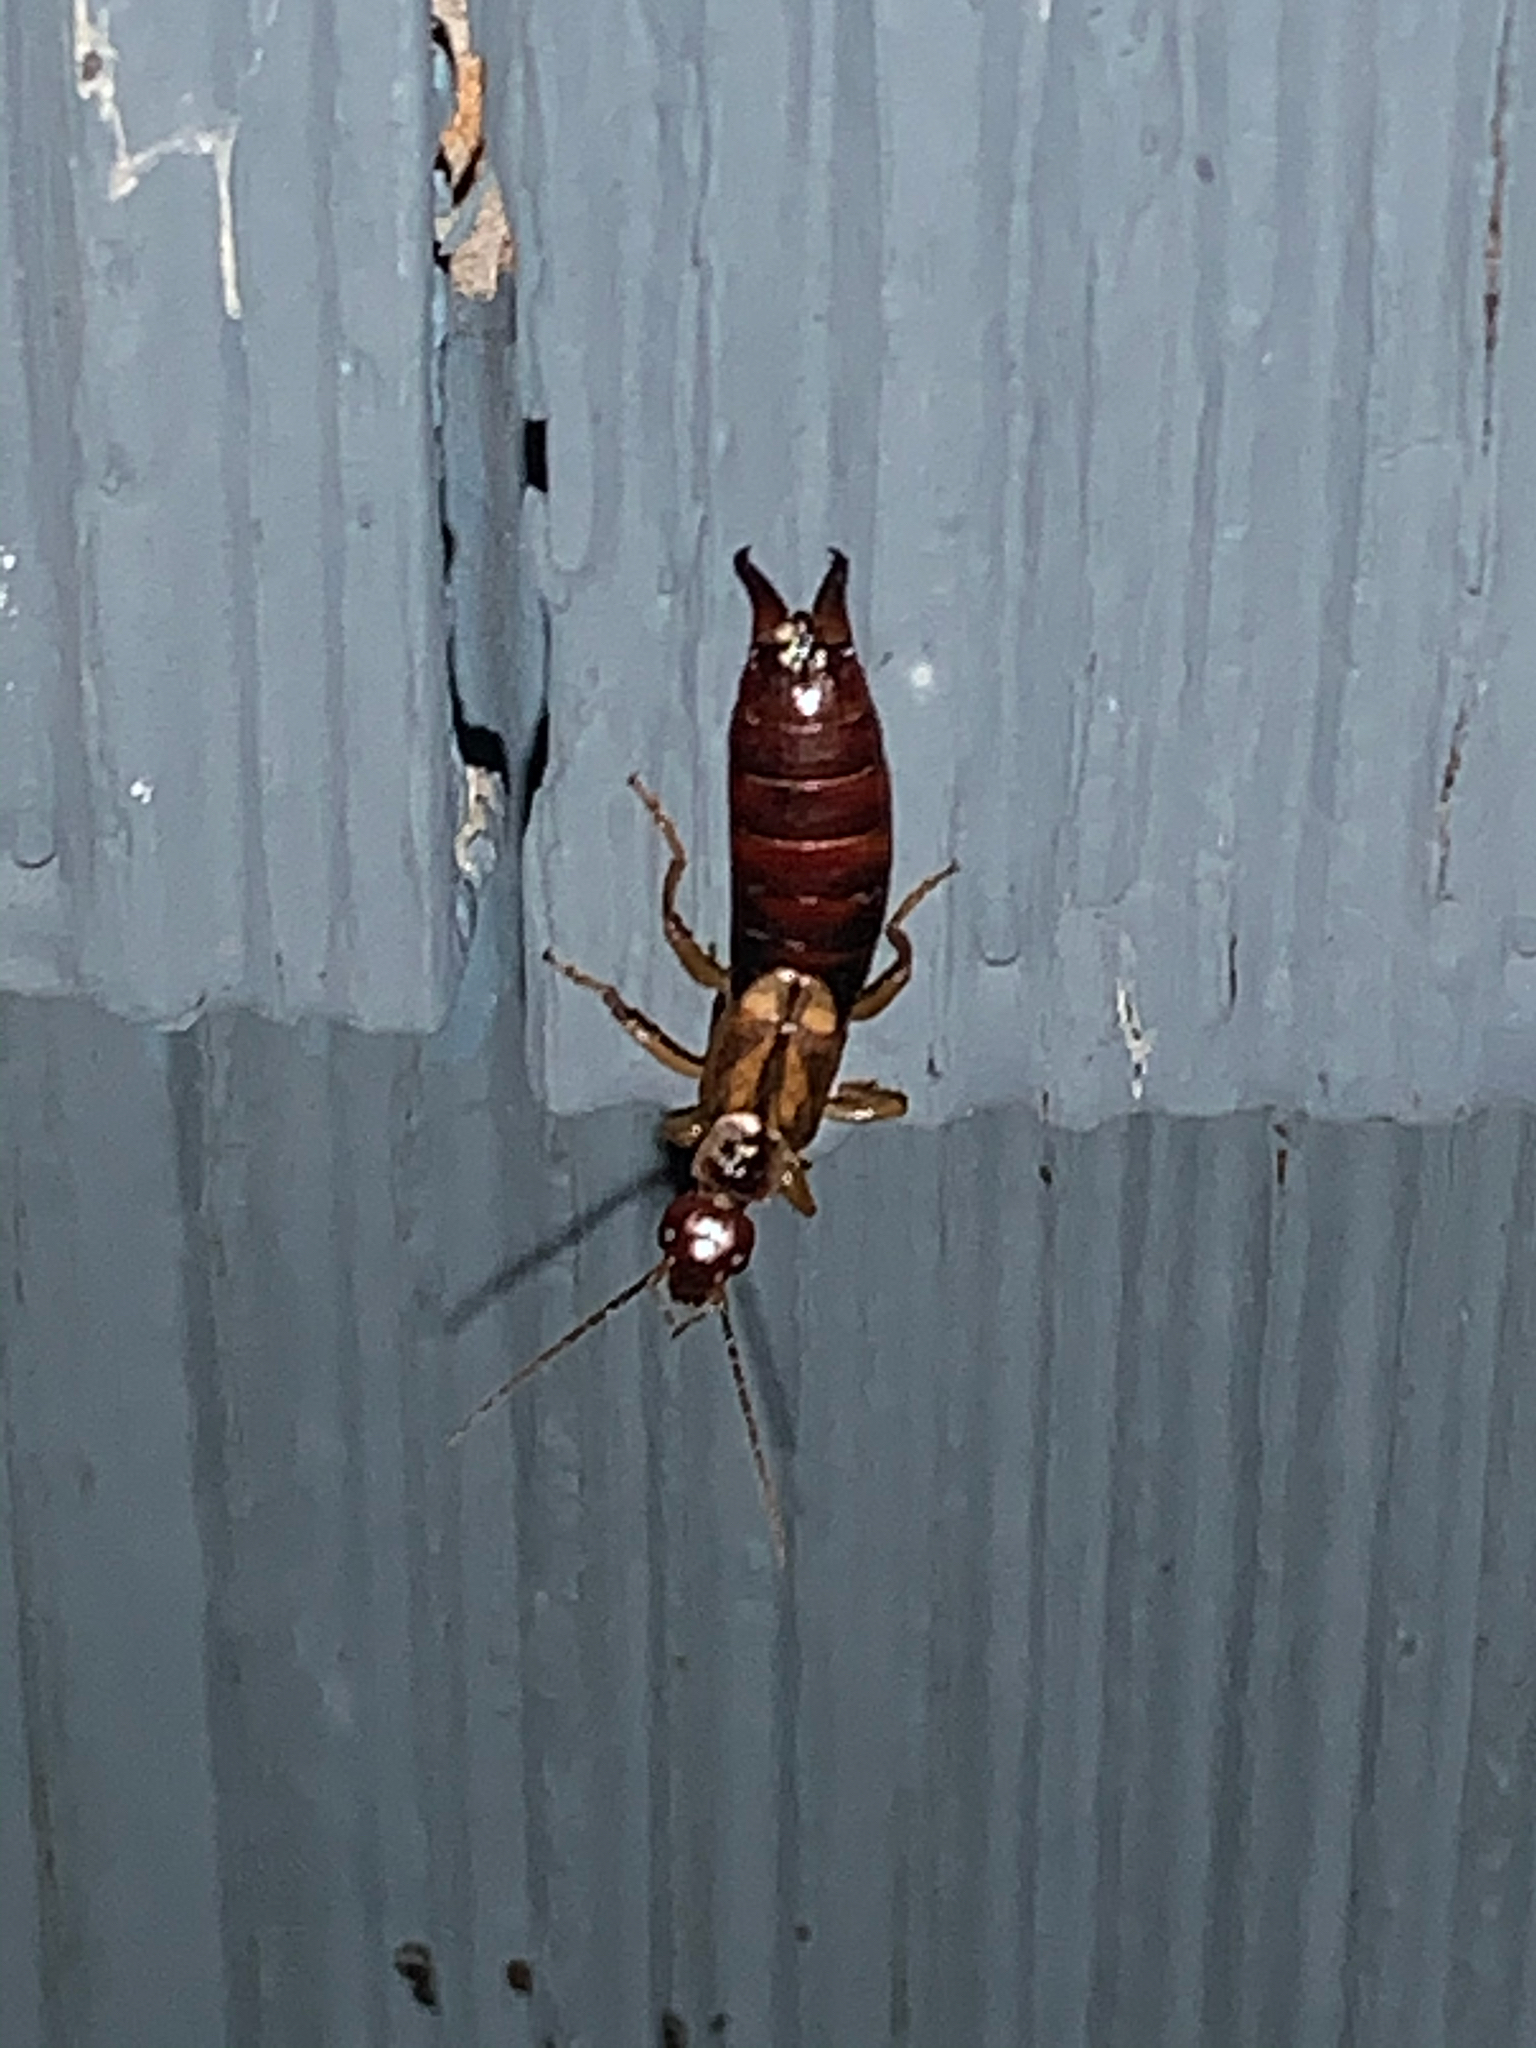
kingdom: Animalia
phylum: Arthropoda
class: Insecta
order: Dermaptera
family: Forficulidae
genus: Forficula
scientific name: Forficula
